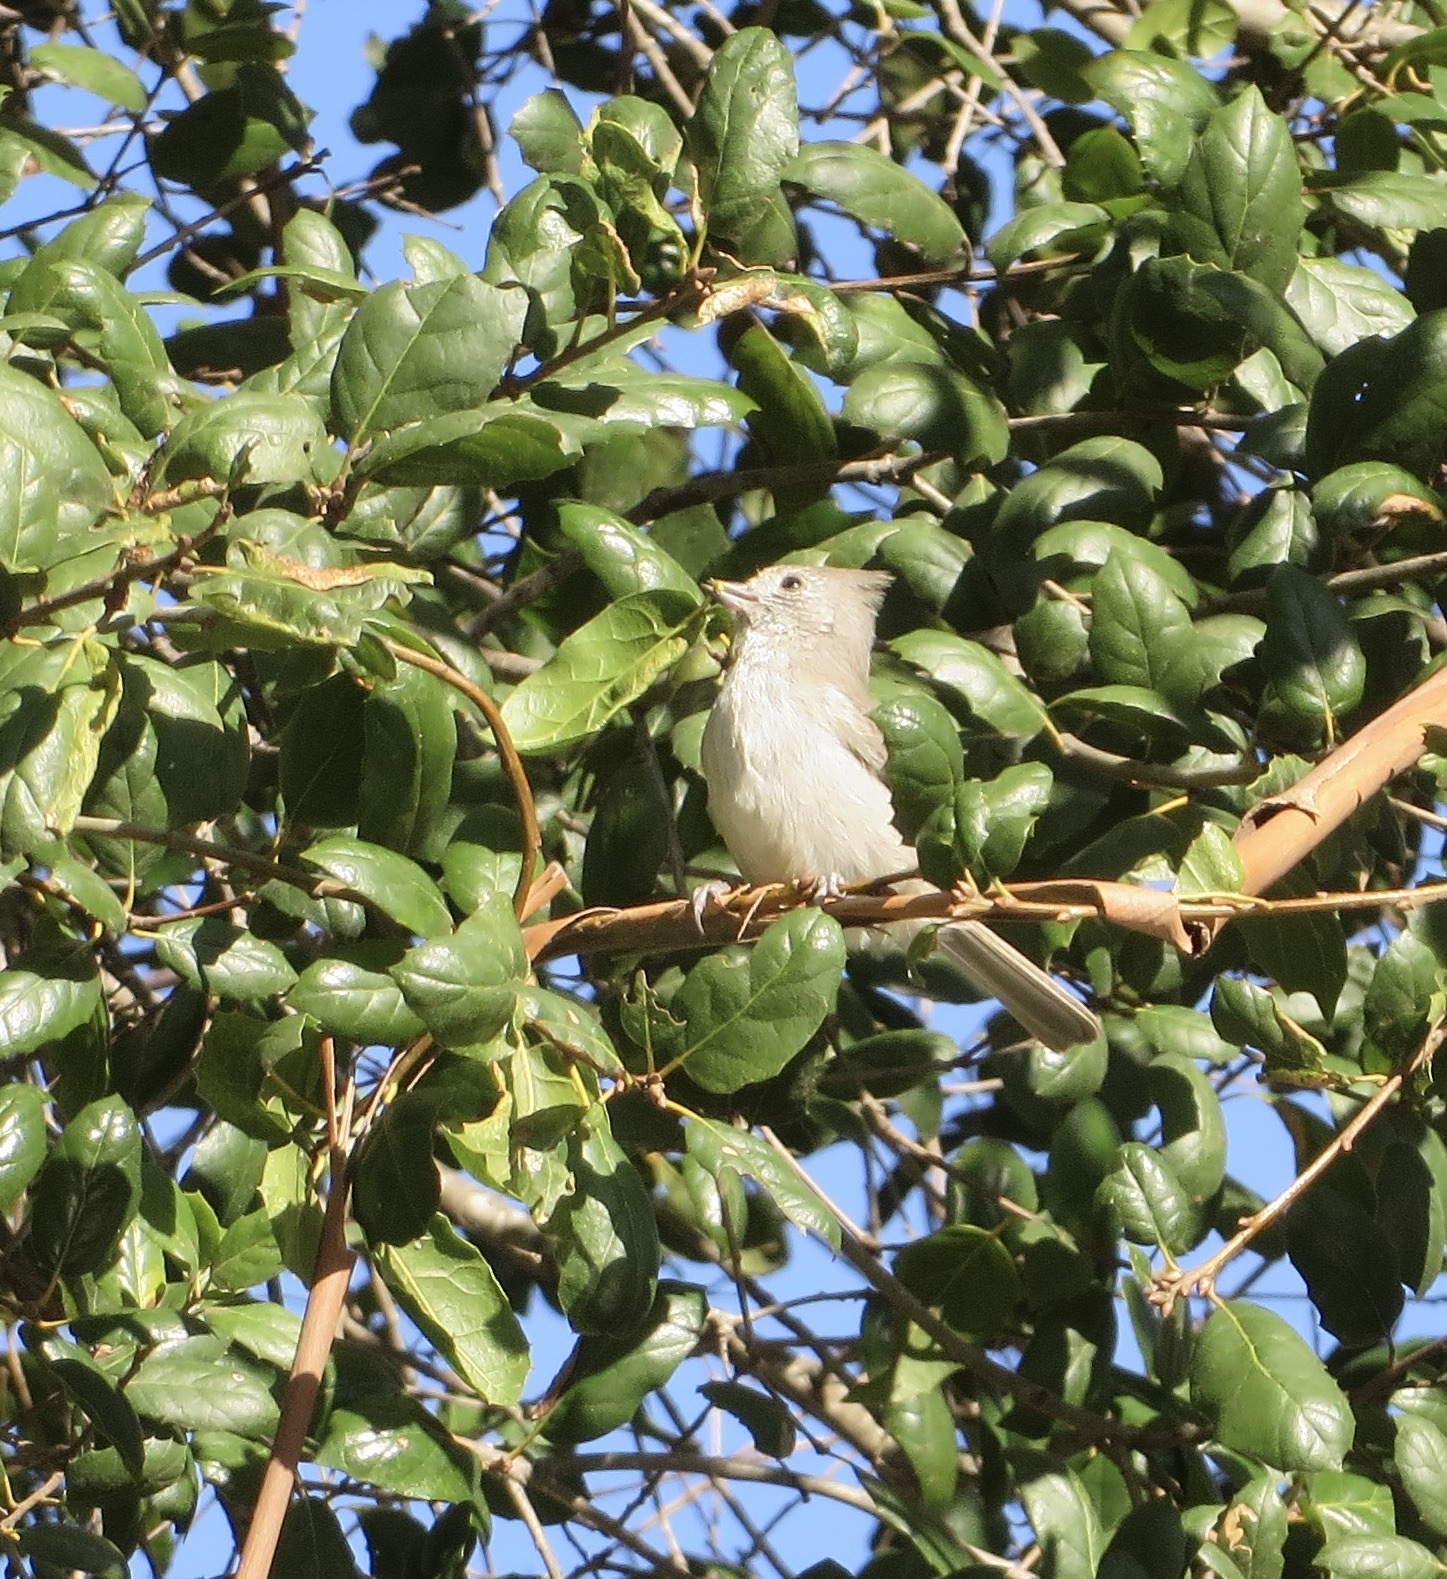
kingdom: Animalia
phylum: Chordata
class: Aves
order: Passeriformes
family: Paridae
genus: Baeolophus
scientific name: Baeolophus inornatus
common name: Oak titmouse
